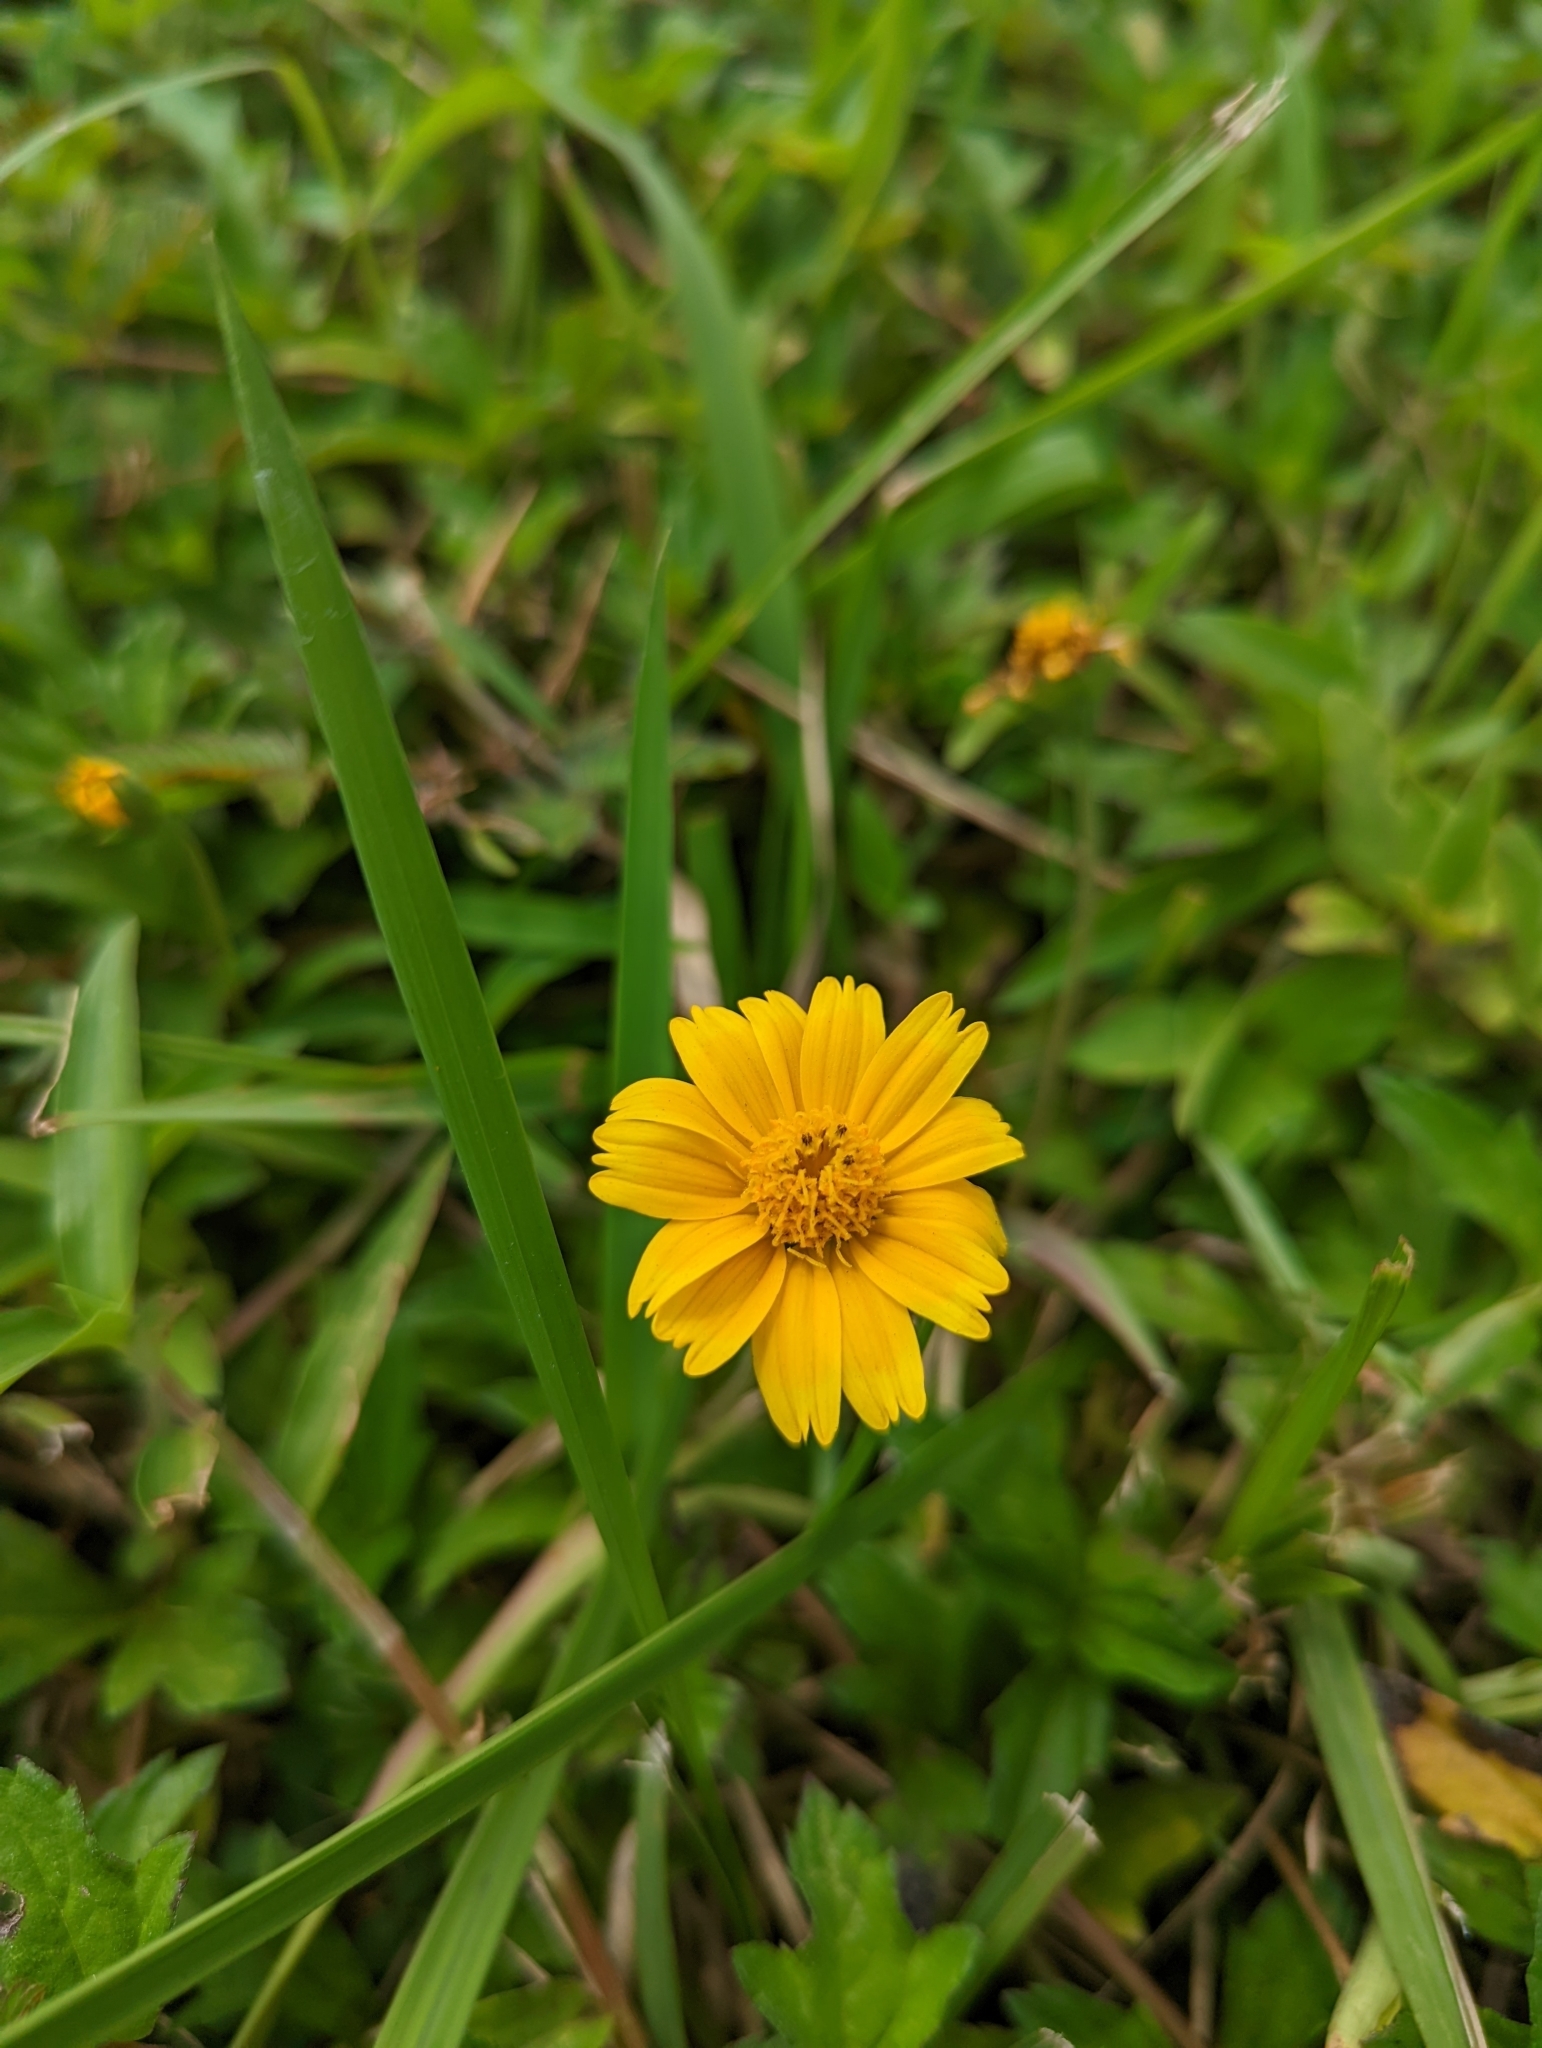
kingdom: Plantae
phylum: Tracheophyta
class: Magnoliopsida
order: Asterales
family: Asteraceae
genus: Sphagneticola
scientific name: Sphagneticola trilobata
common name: Bay biscayne creeping-oxeye
